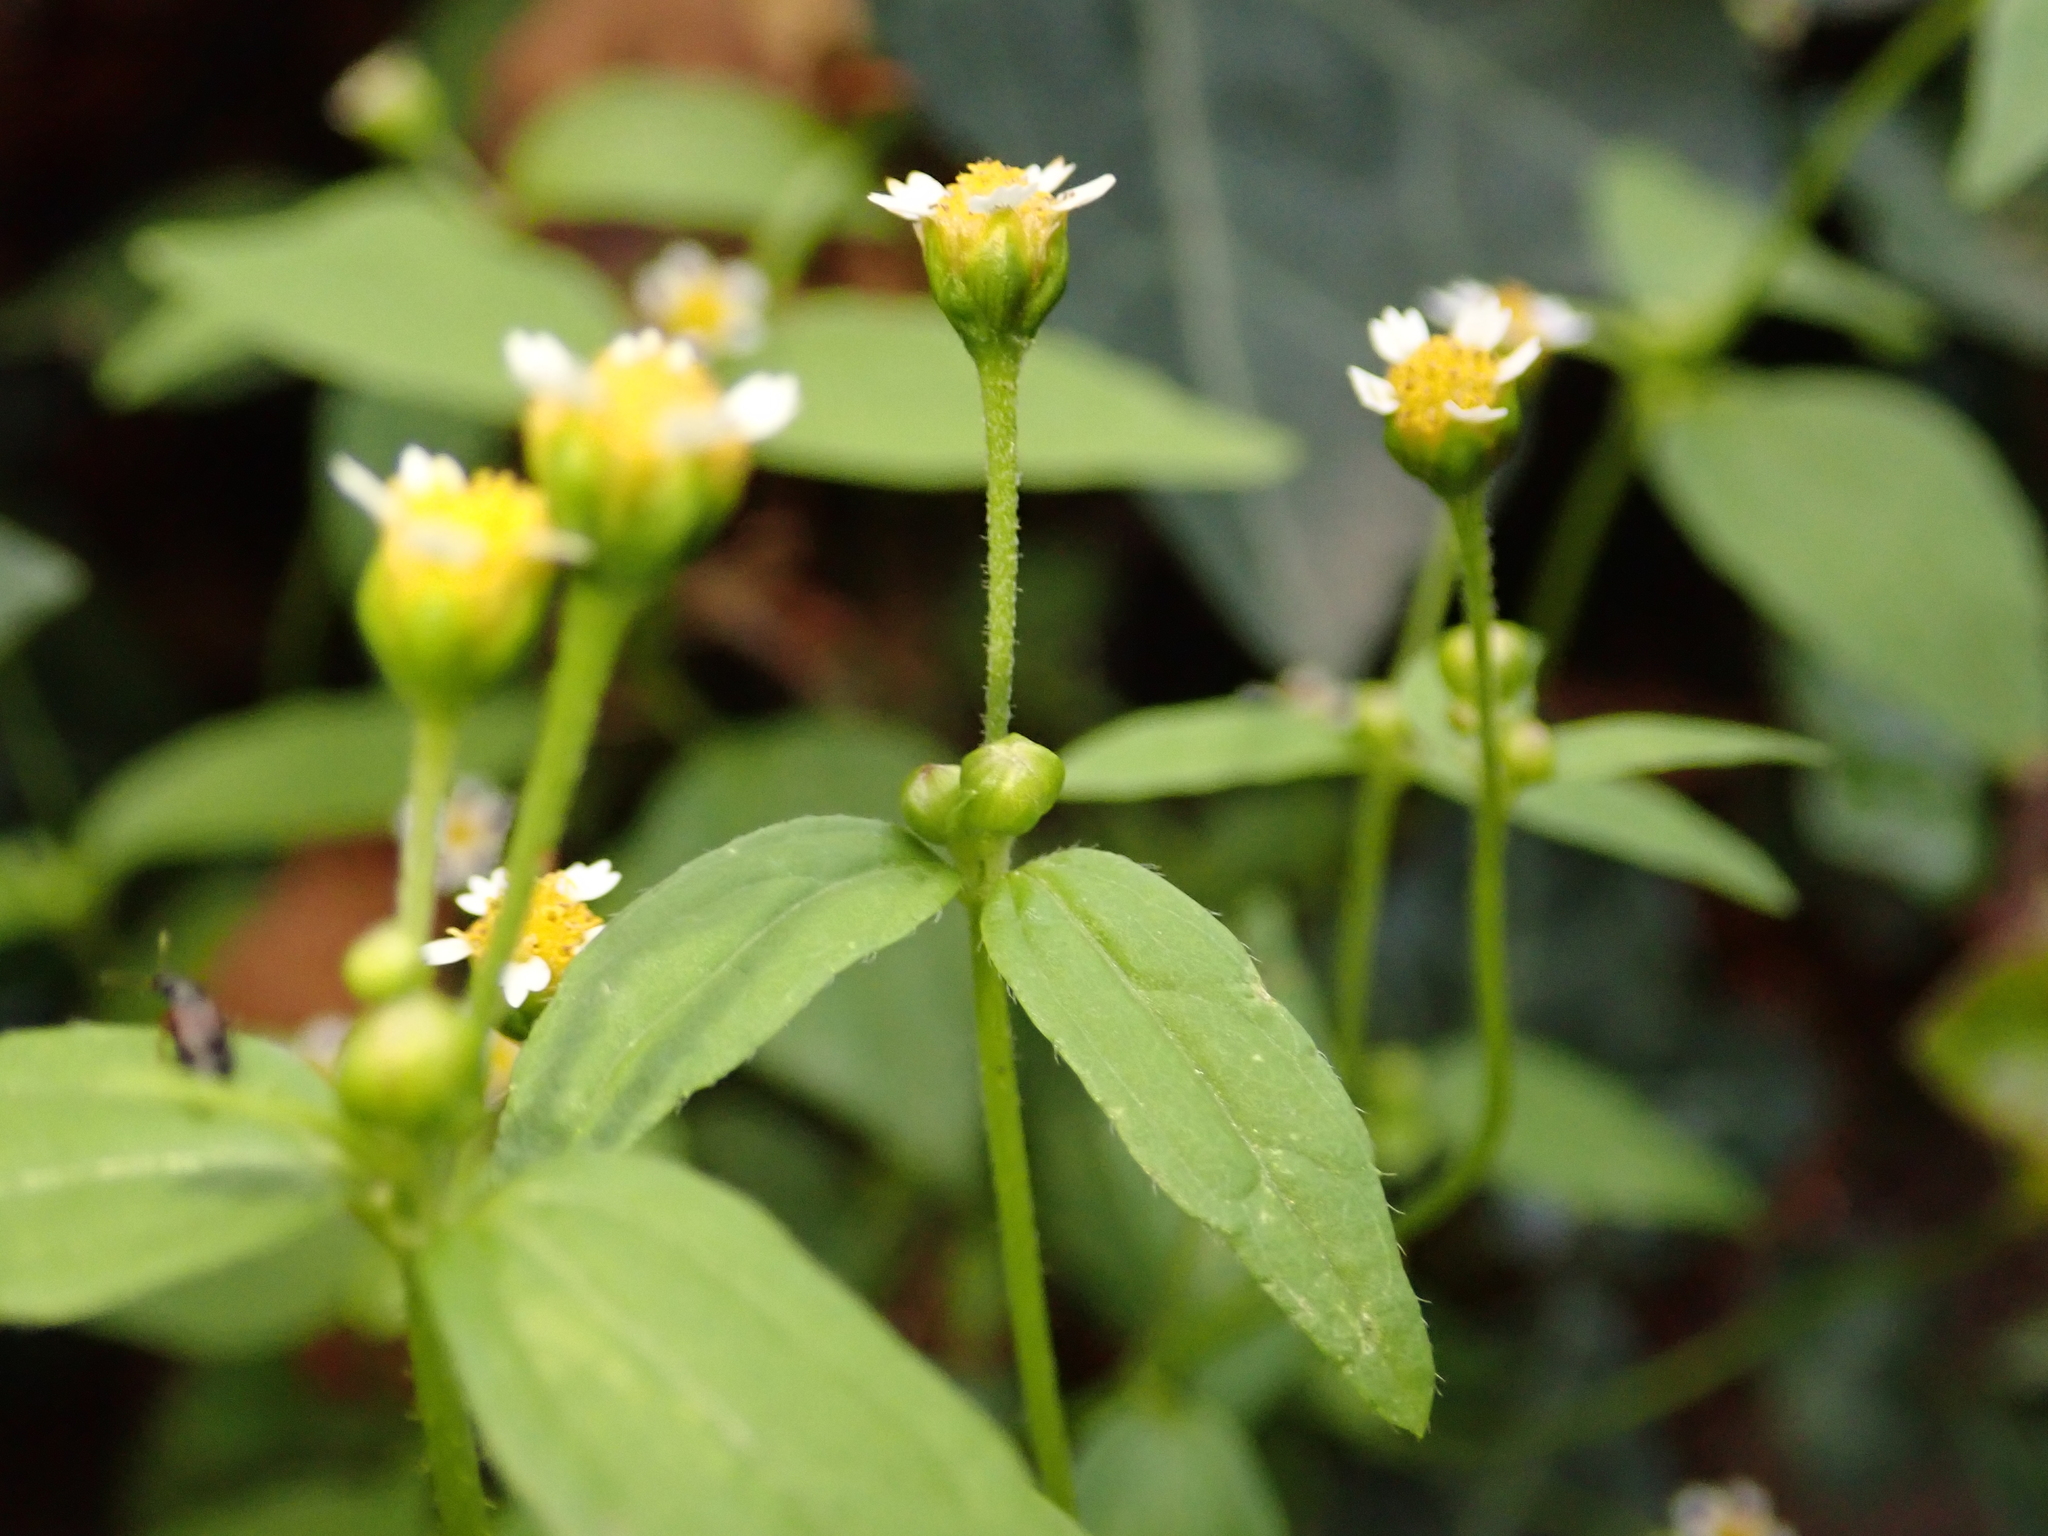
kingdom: Plantae
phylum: Tracheophyta
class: Magnoliopsida
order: Asterales
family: Asteraceae
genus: Galinsoga
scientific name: Galinsoga parviflora
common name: Gallant soldier
